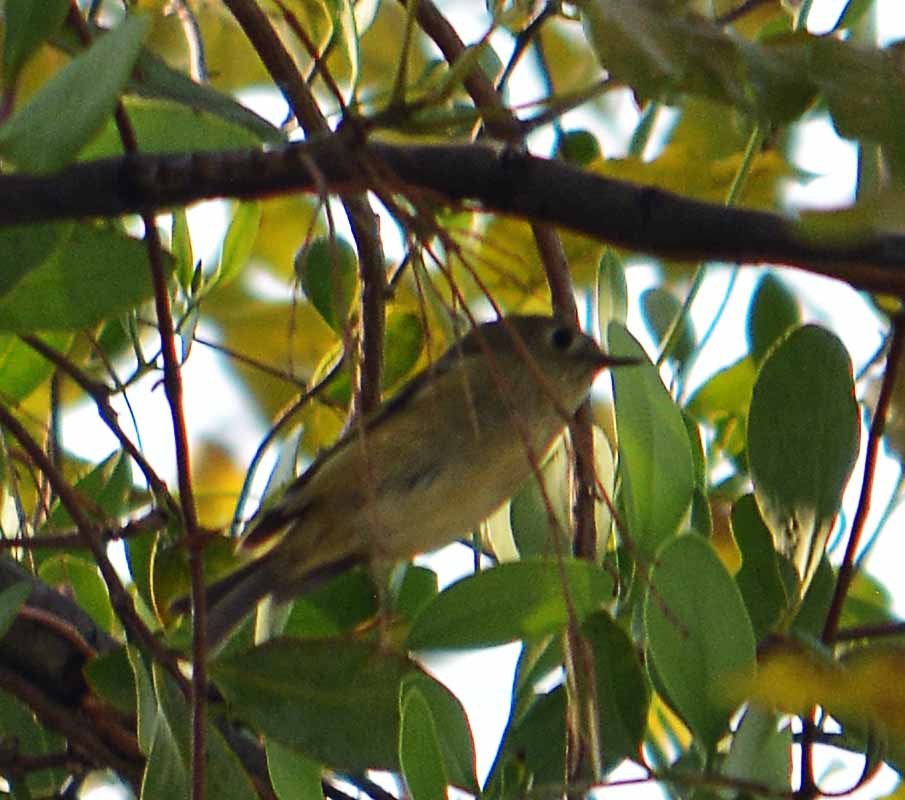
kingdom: Animalia
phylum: Chordata
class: Aves
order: Passeriformes
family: Regulidae
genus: Regulus
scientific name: Regulus calendula
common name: Ruby-crowned kinglet
